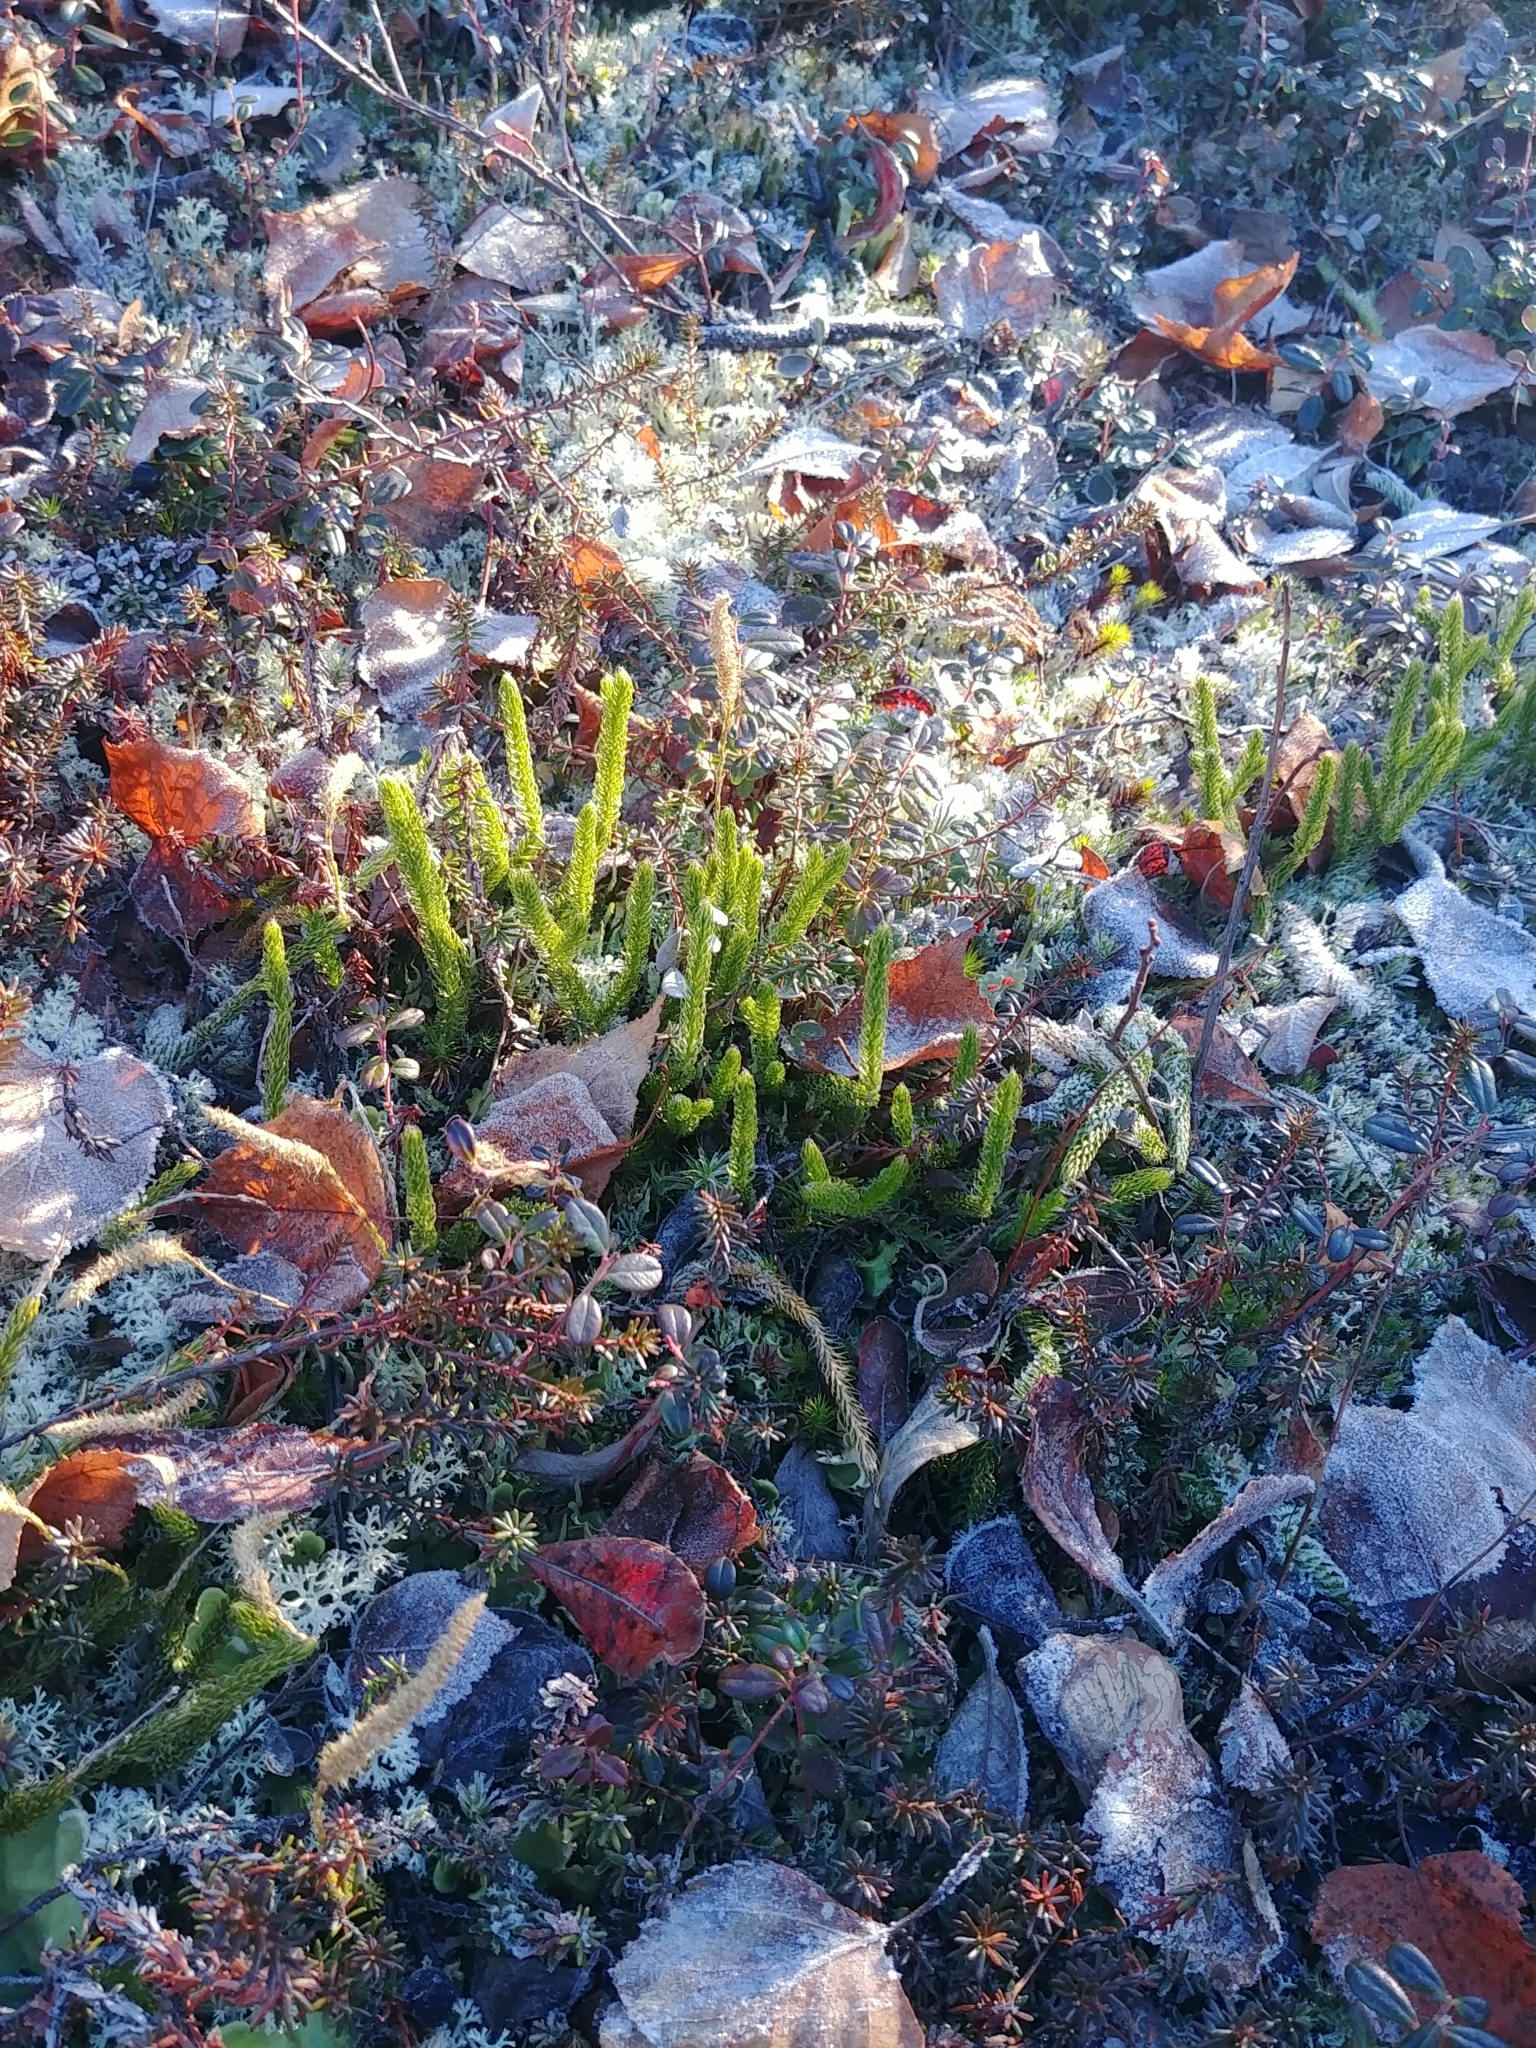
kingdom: Plantae
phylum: Tracheophyta
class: Lycopodiopsida
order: Lycopodiales
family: Lycopodiaceae
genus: Lycopodium
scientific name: Lycopodium lagopus
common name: One-cone clubmoss
